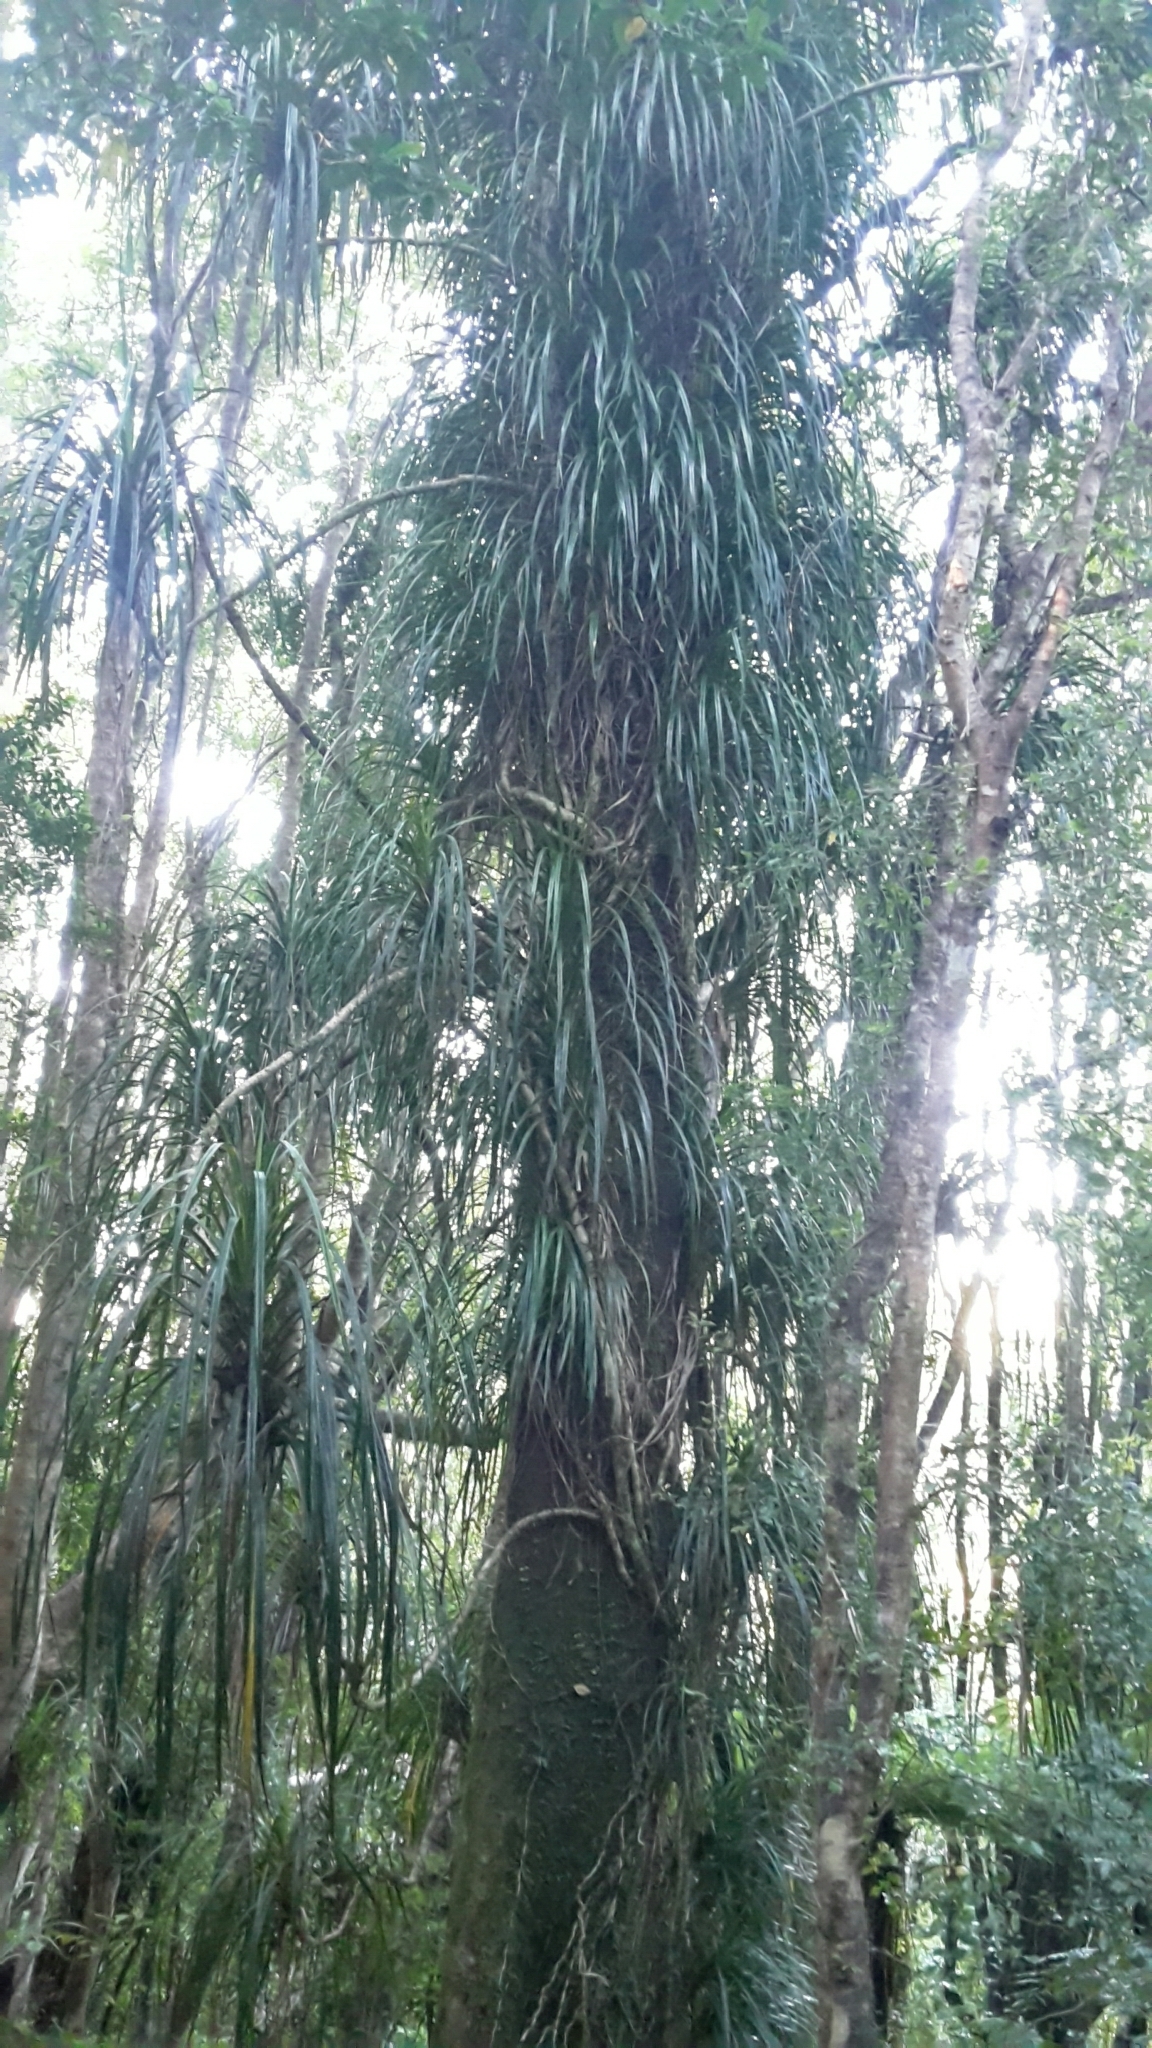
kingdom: Plantae
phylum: Tracheophyta
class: Liliopsida
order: Pandanales
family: Pandanaceae
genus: Freycinetia
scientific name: Freycinetia banksii
